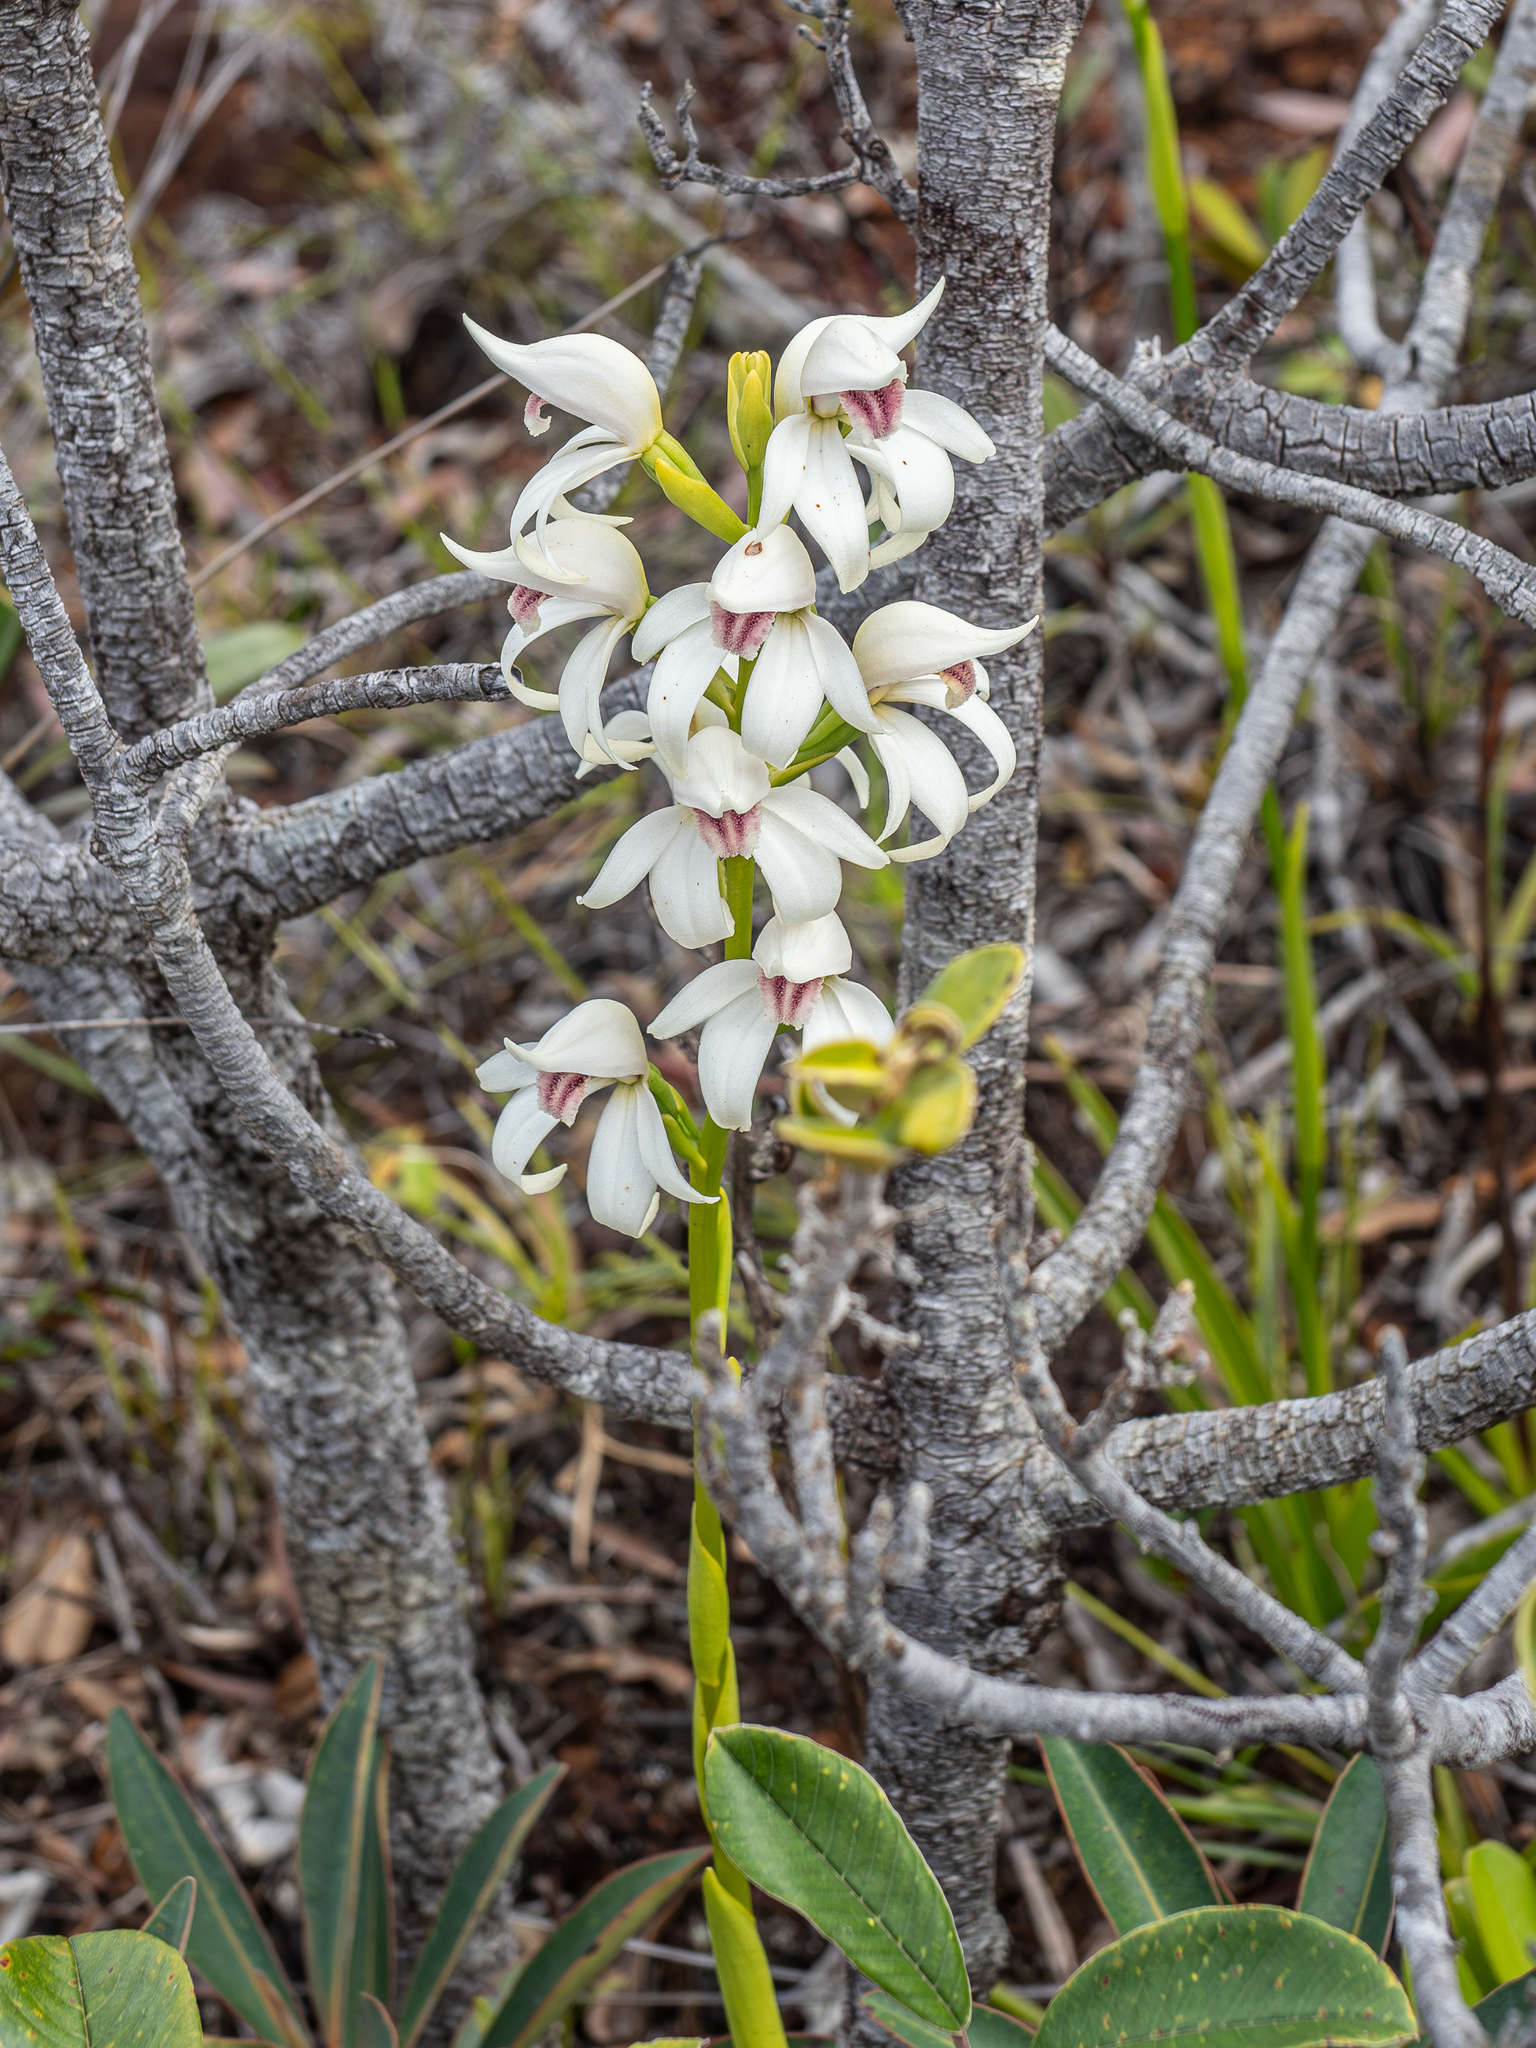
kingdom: Plantae
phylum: Tracheophyta
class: Liliopsida
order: Asparagales
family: Orchidaceae
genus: Megastylis
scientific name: Megastylis gigas
